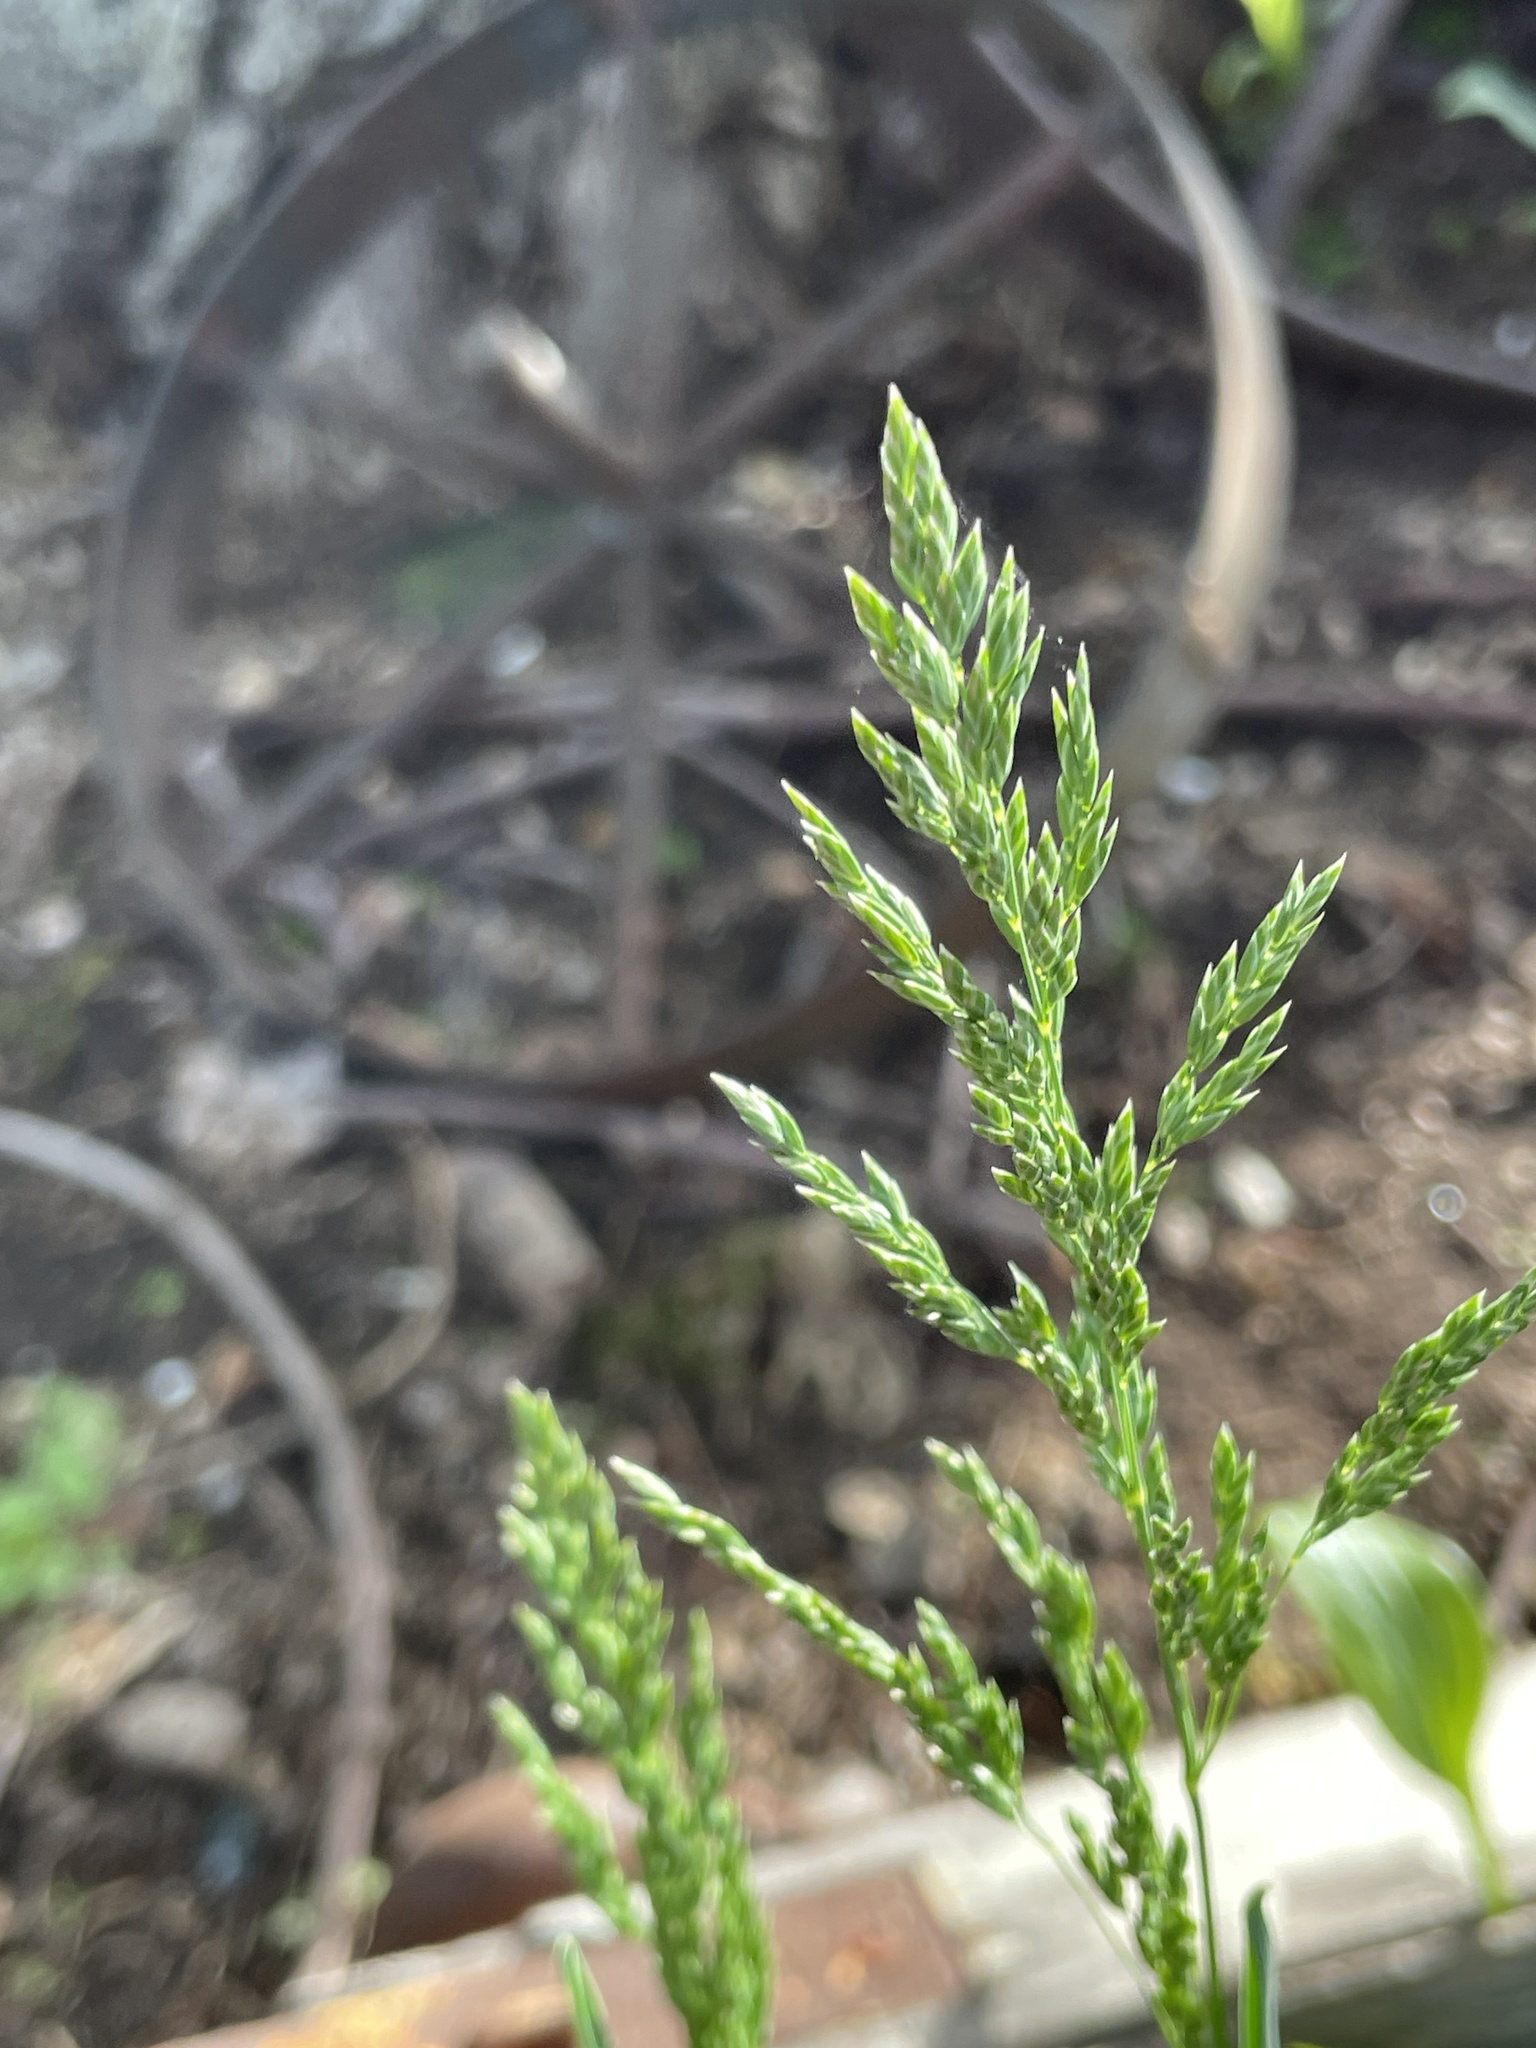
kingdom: Plantae
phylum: Tracheophyta
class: Liliopsida
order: Poales
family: Poaceae
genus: Poa
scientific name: Poa pratensis
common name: Kentucky bluegrass
